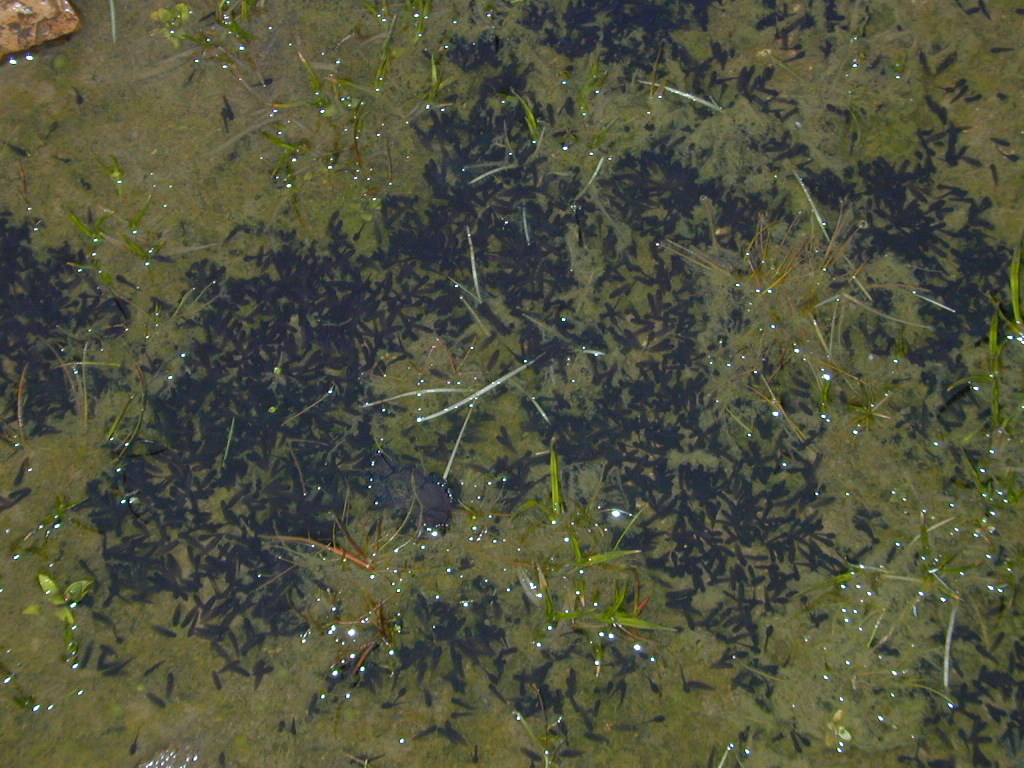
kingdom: Animalia
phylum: Chordata
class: Amphibia
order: Anura
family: Alytidae
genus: Discoglossus
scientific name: Discoglossus sardus
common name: Sardinia painted frog
